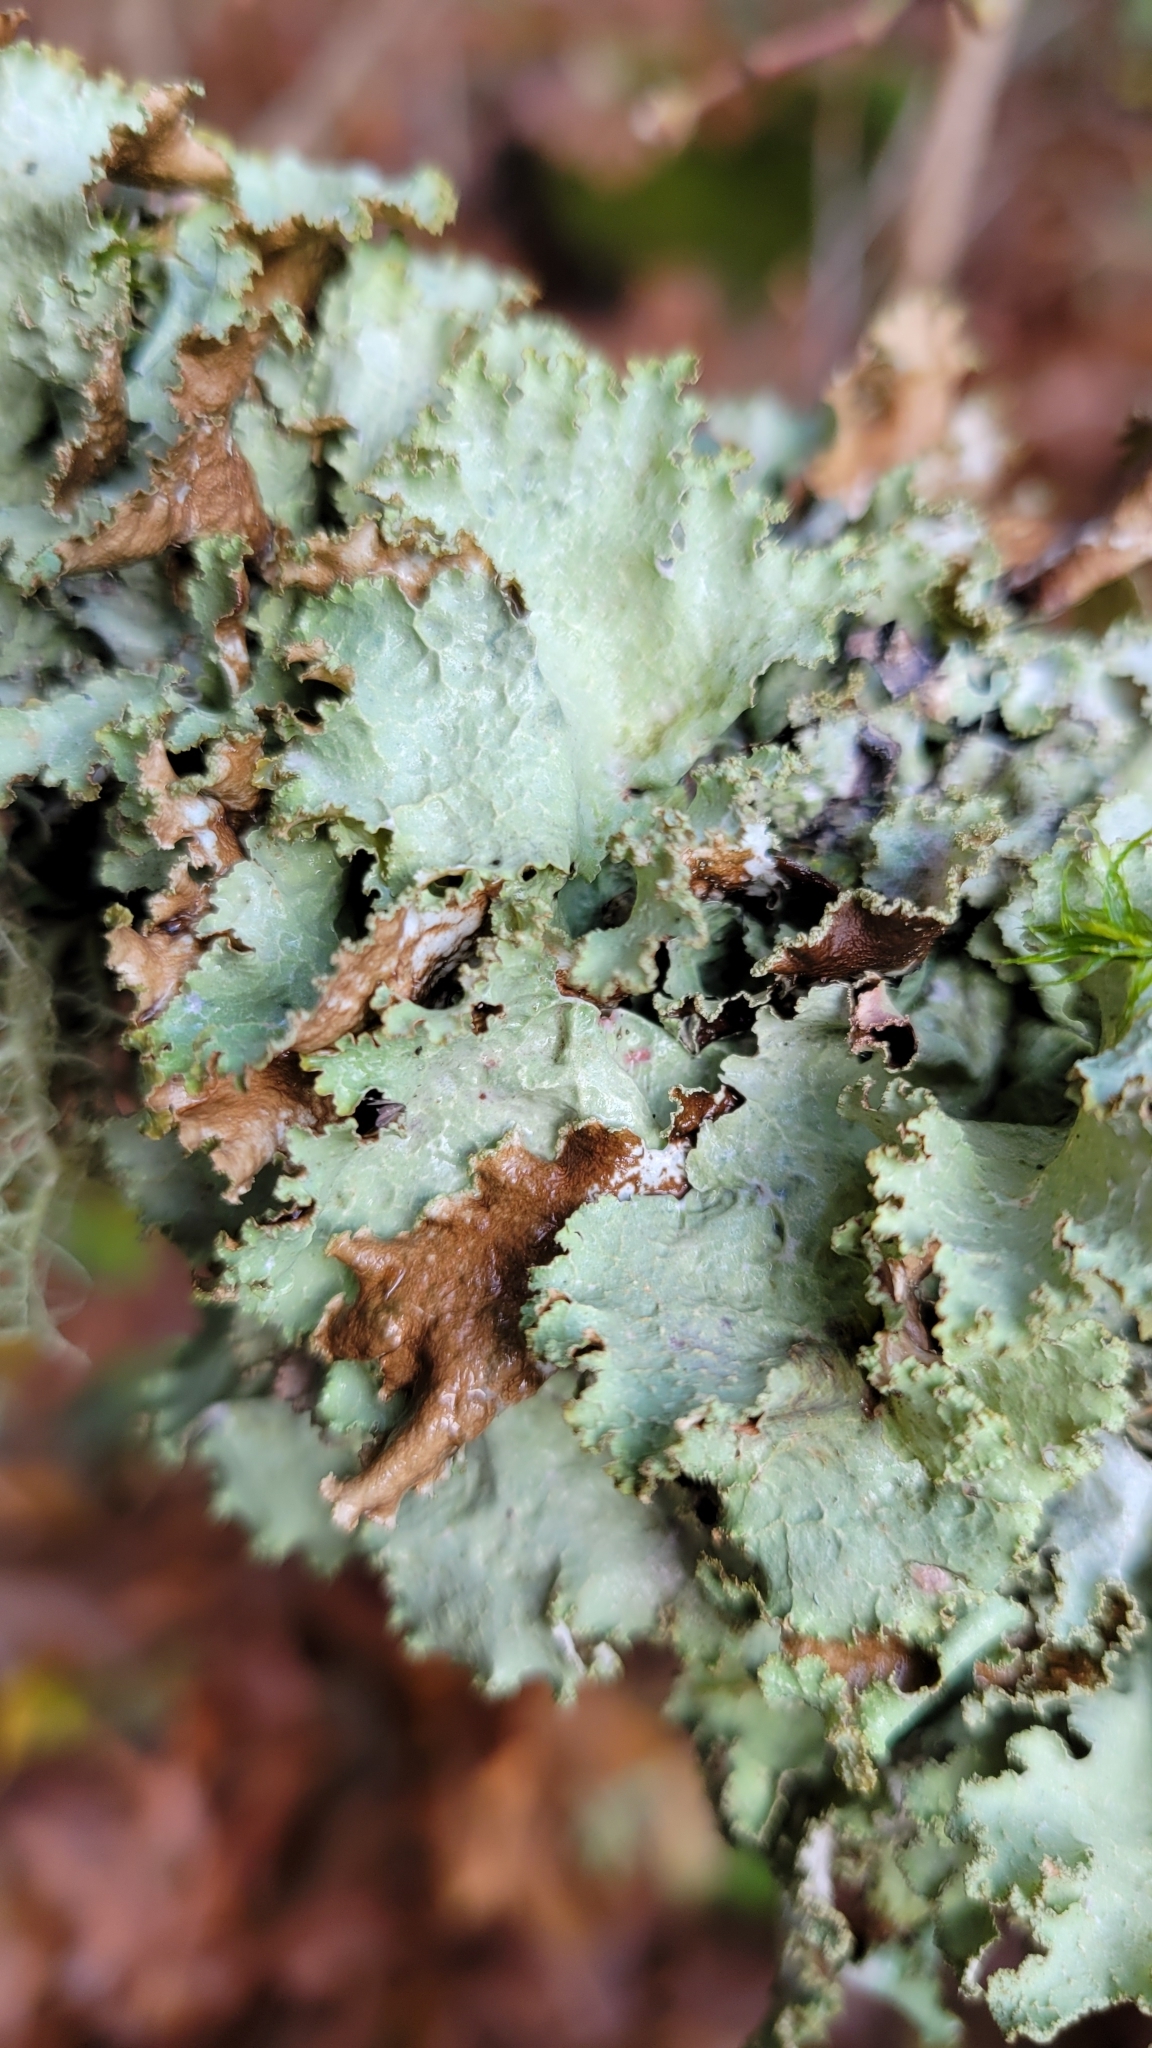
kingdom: Fungi
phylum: Ascomycota
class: Lecanoromycetes
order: Lecanorales
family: Parmeliaceae
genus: Platismatia
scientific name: Platismatia glauca
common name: Varied rag lichen
